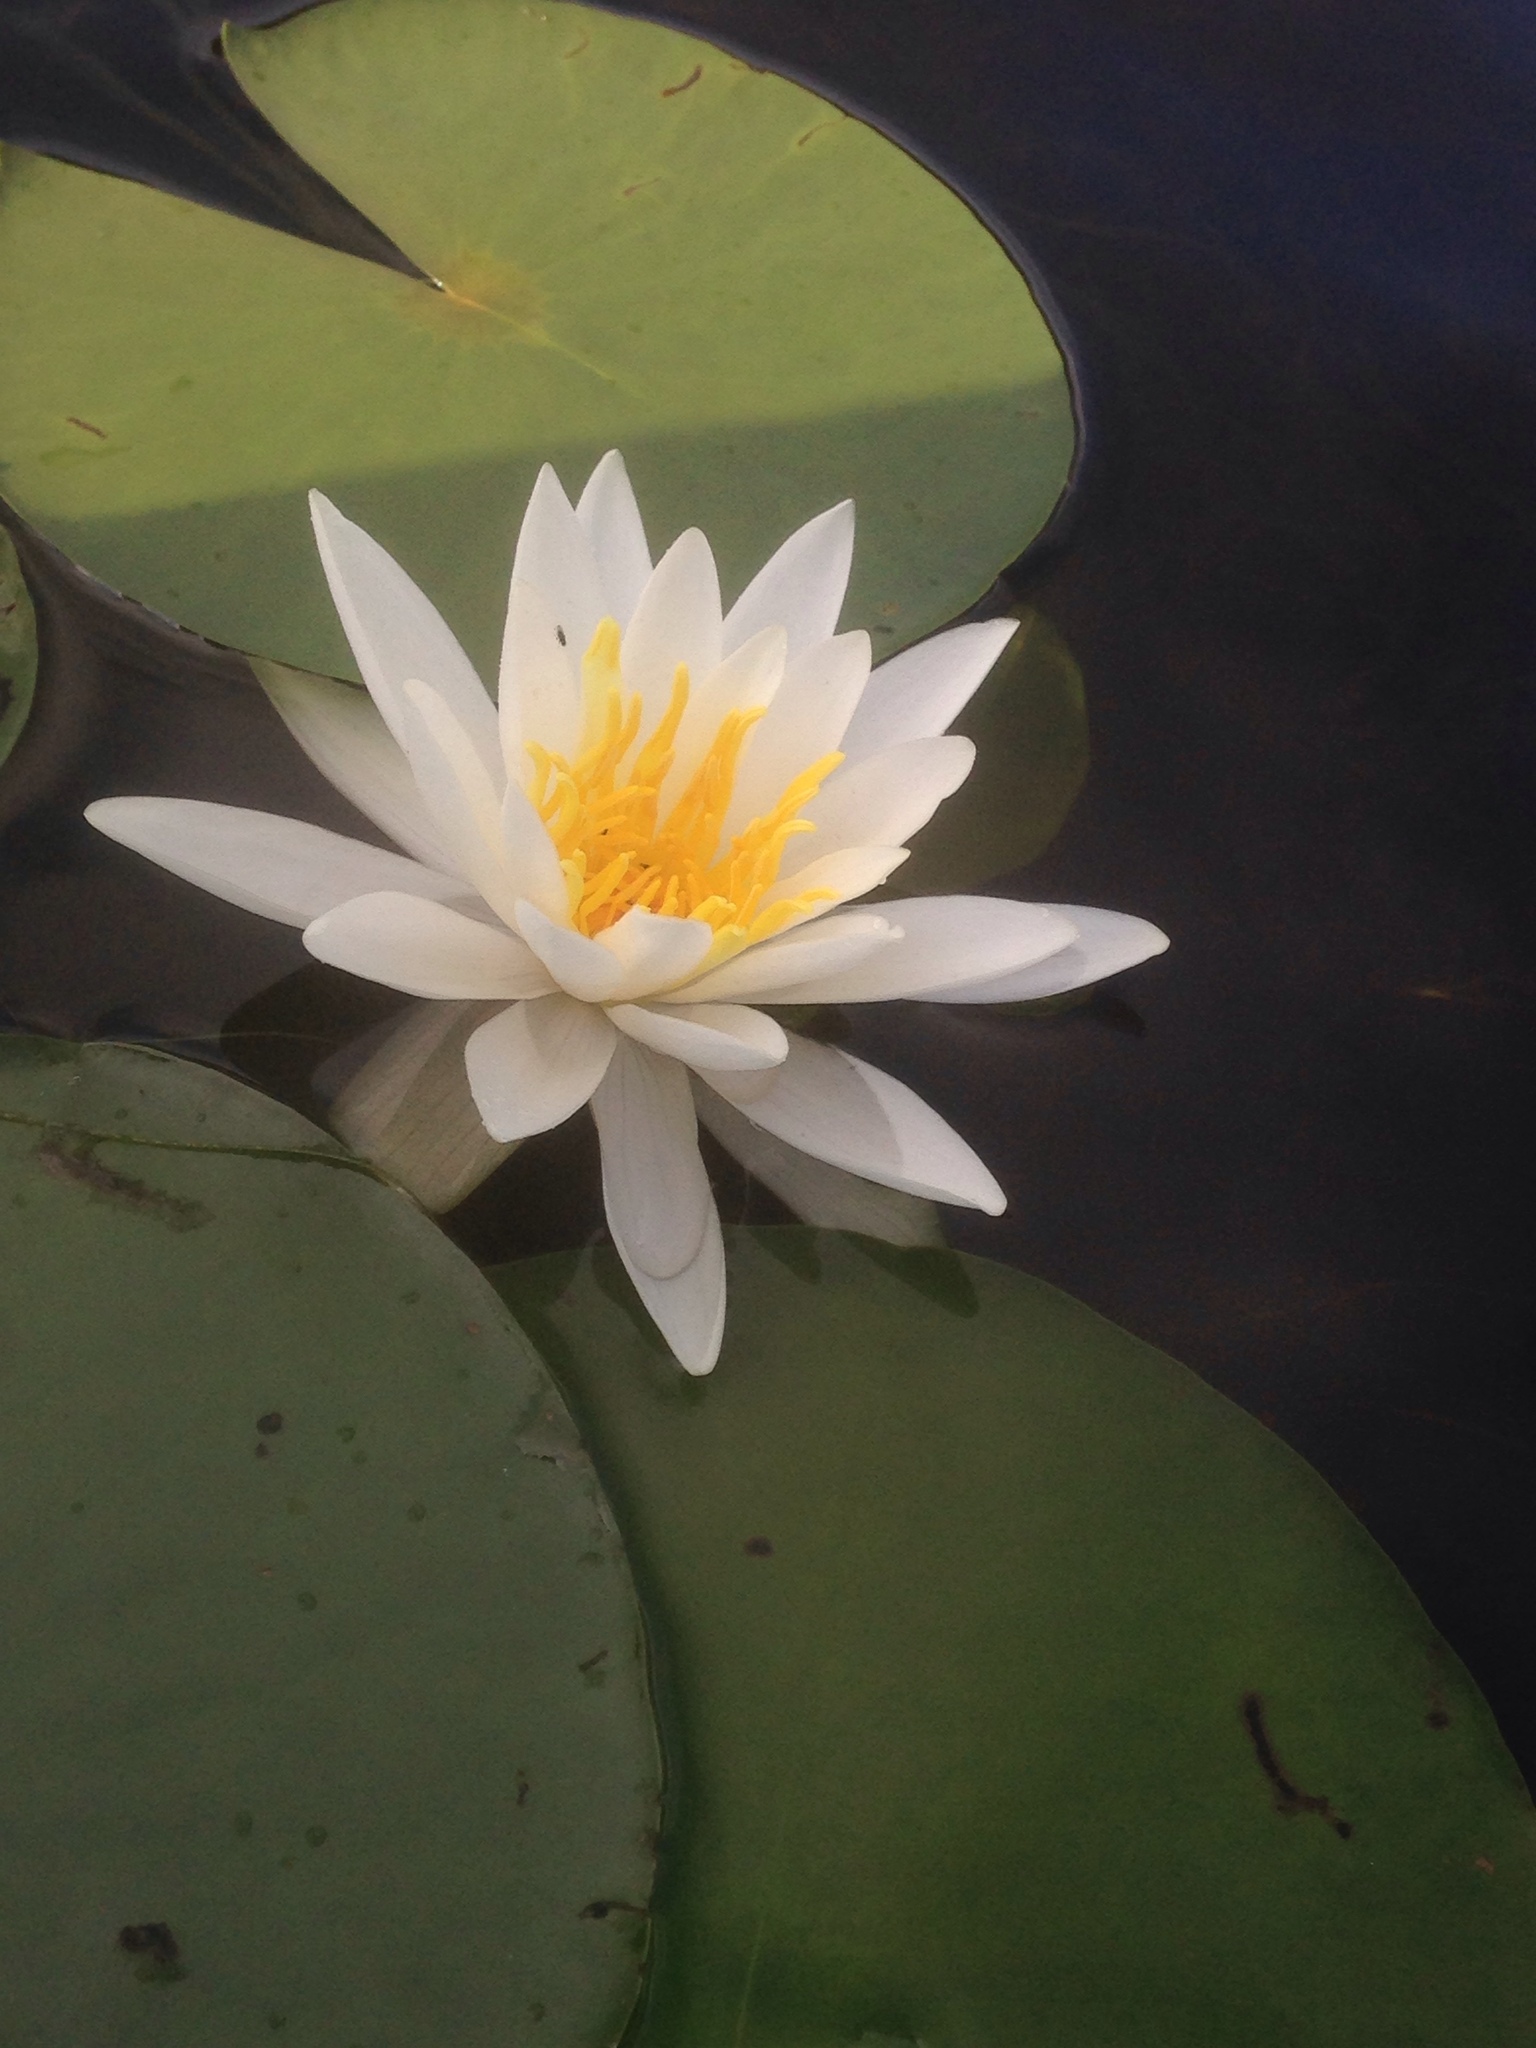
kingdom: Plantae
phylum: Tracheophyta
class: Magnoliopsida
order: Nymphaeales
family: Nymphaeaceae
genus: Nymphaea
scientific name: Nymphaea odorata
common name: Fragrant water-lily
